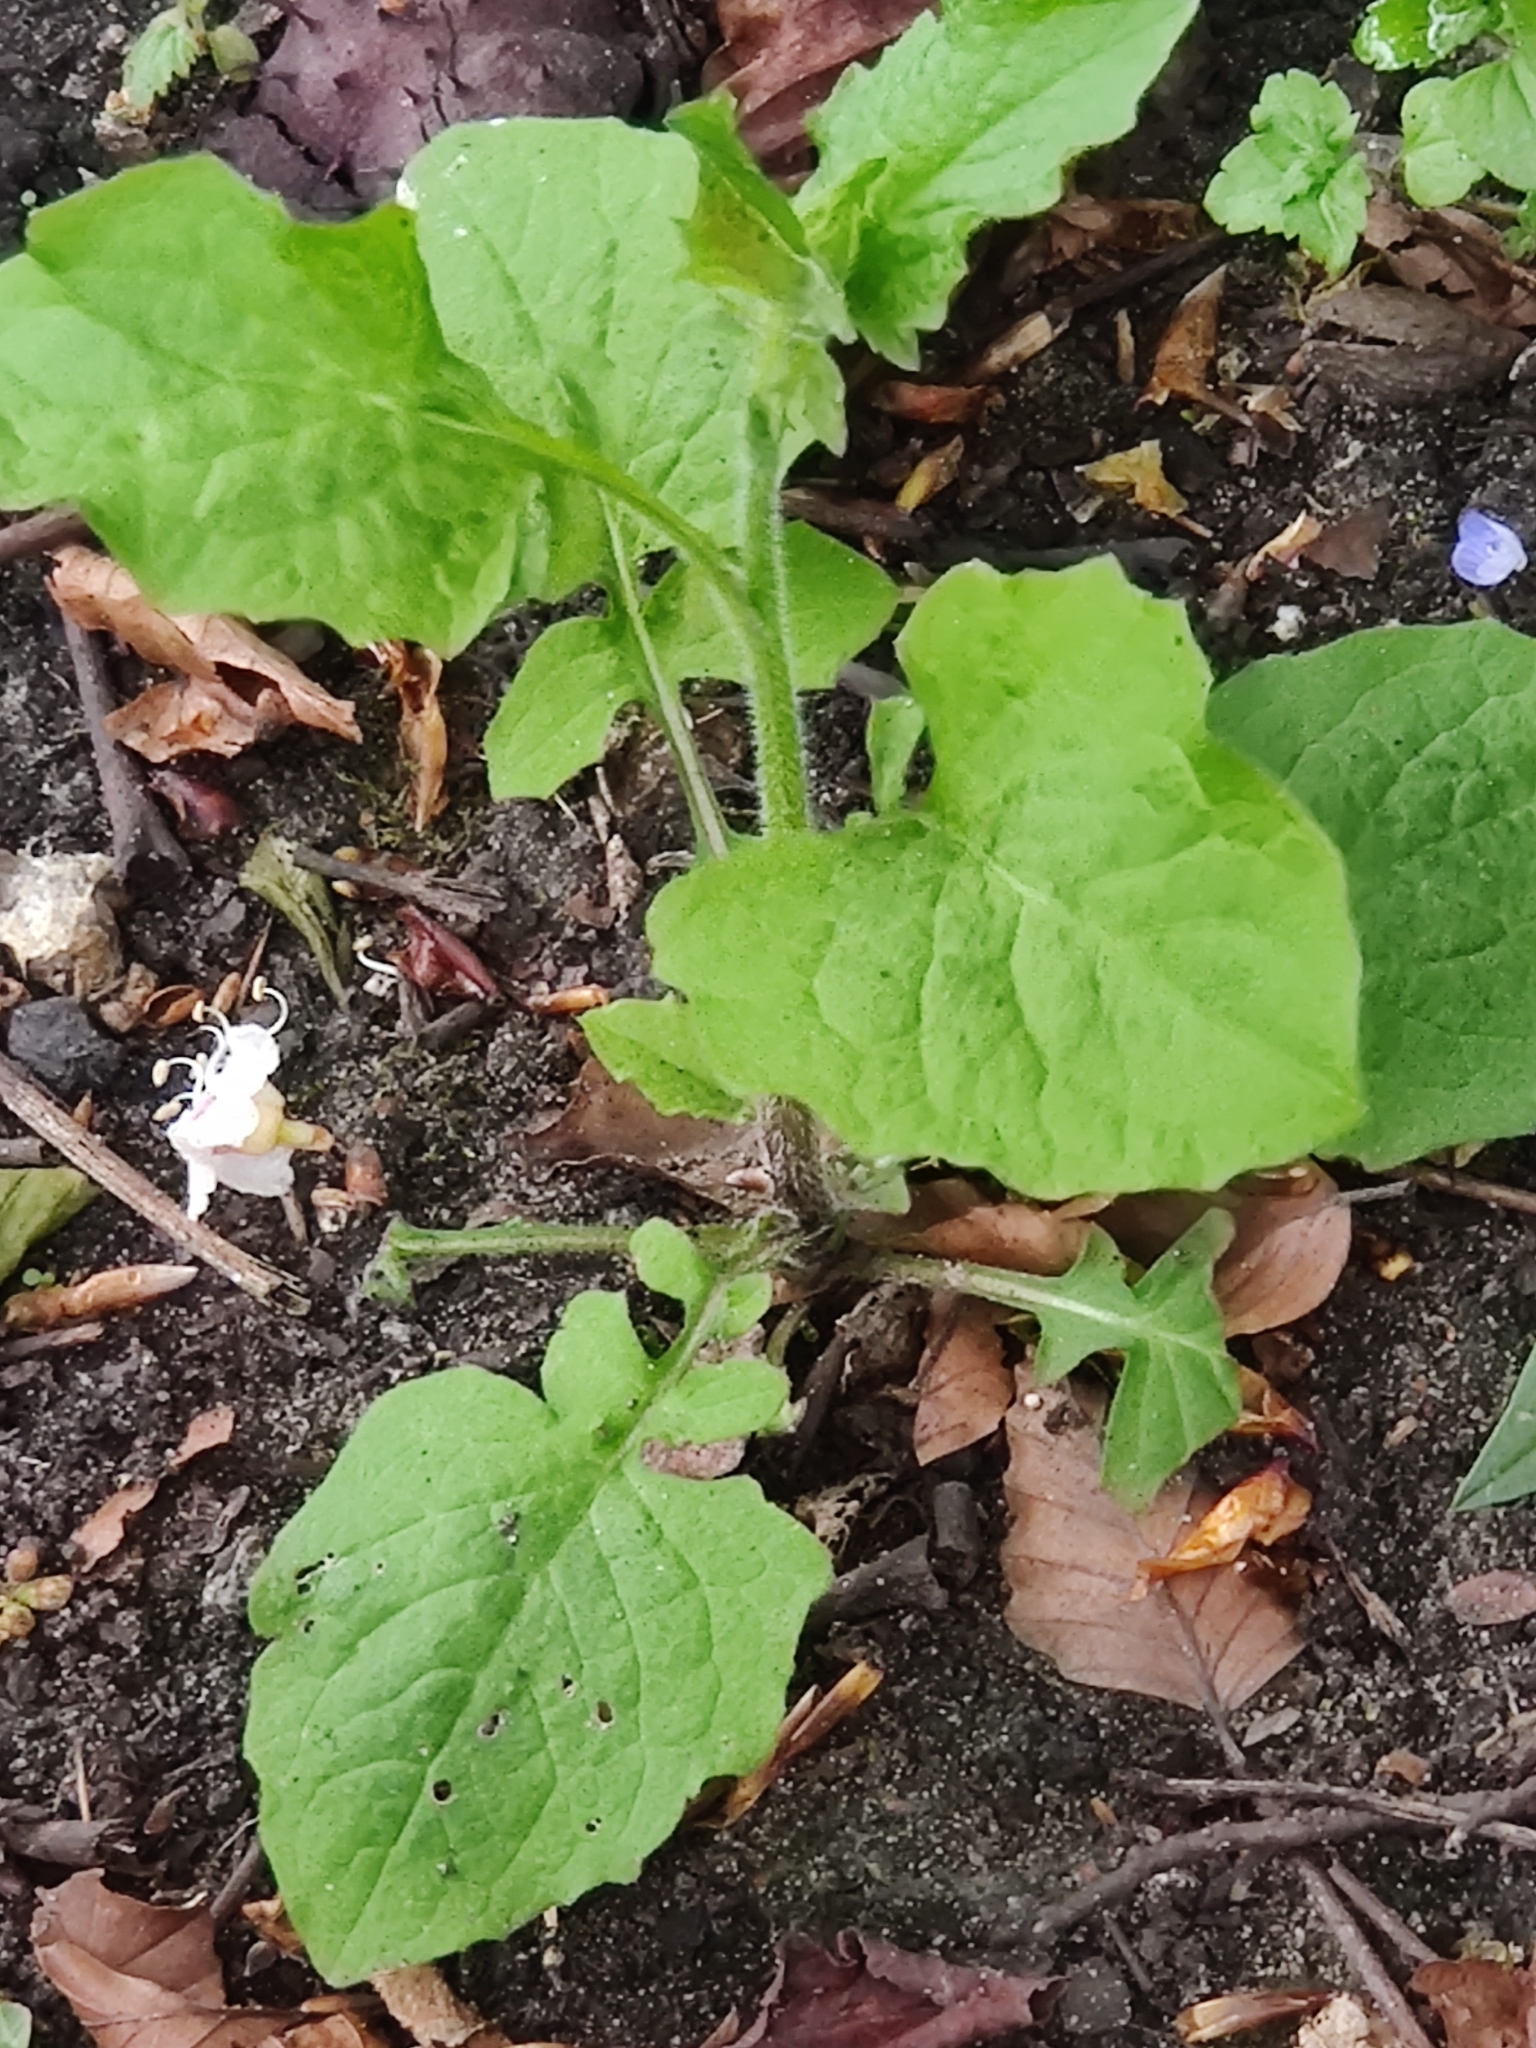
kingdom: Plantae
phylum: Tracheophyta
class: Magnoliopsida
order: Asterales
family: Asteraceae
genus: Lapsana
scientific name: Lapsana communis
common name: Nipplewort
